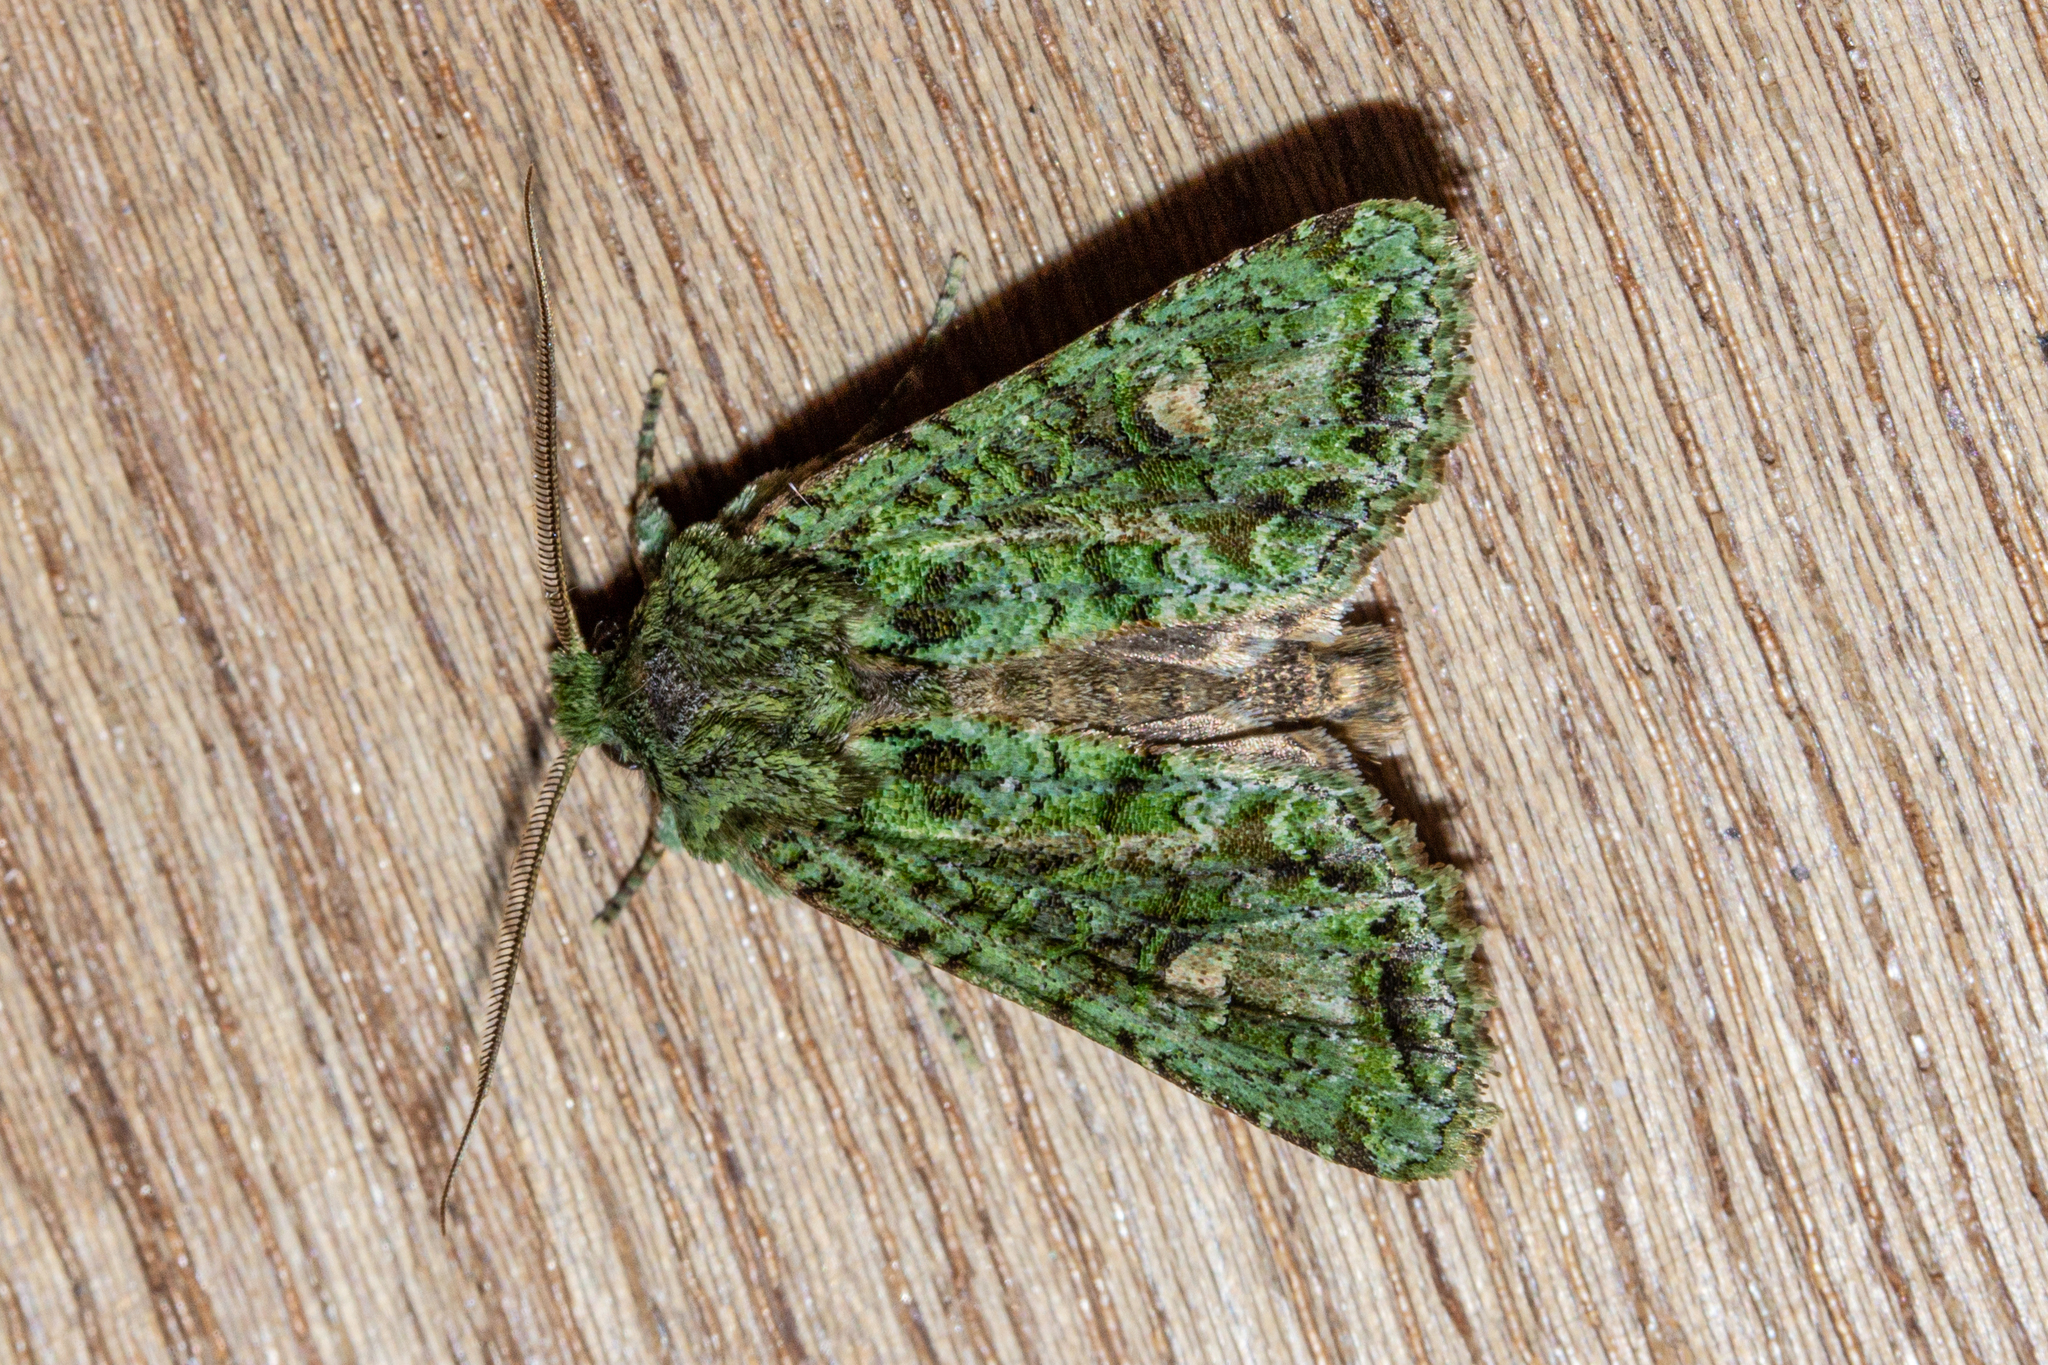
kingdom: Animalia
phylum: Arthropoda
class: Insecta
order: Lepidoptera
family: Noctuidae
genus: Ichneutica
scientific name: Ichneutica
